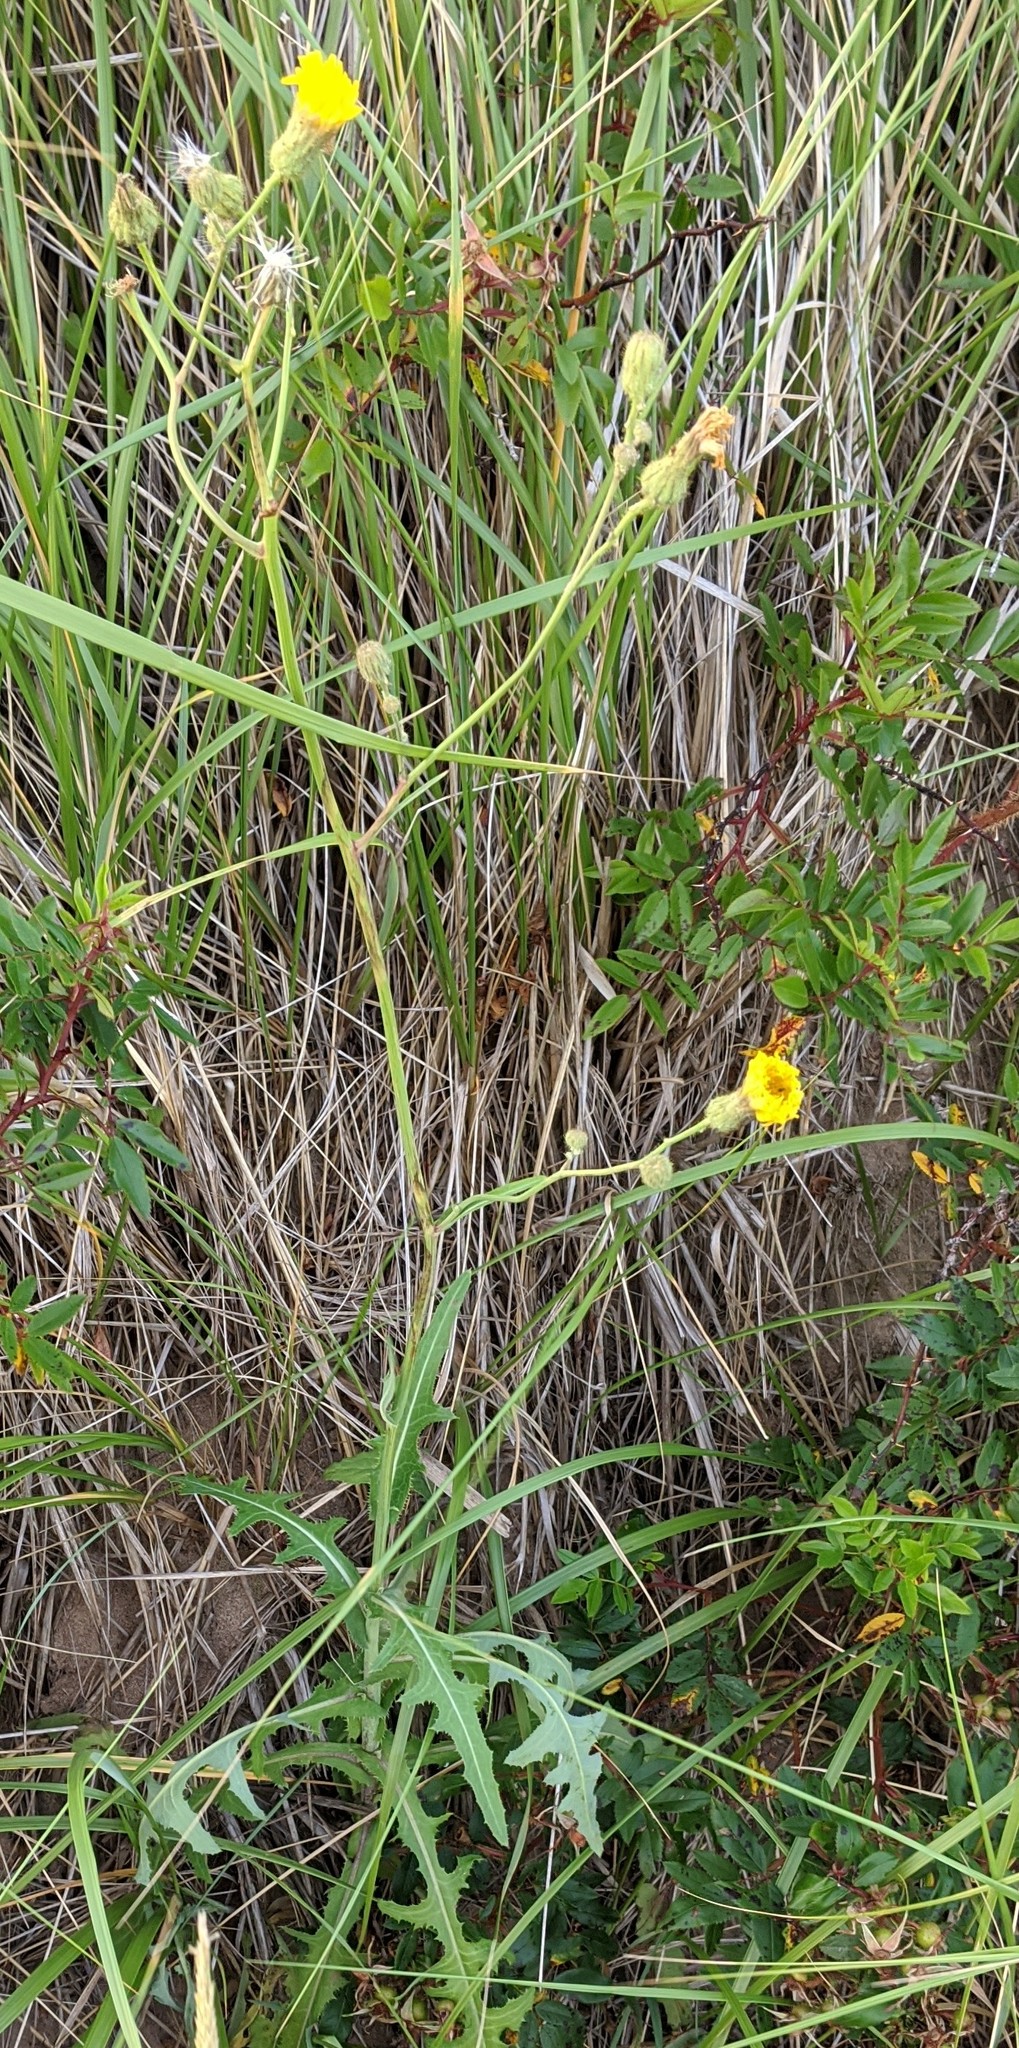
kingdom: Plantae
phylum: Tracheophyta
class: Magnoliopsida
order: Asterales
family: Asteraceae
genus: Sonchus
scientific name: Sonchus arvensis
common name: Perennial sow-thistle
